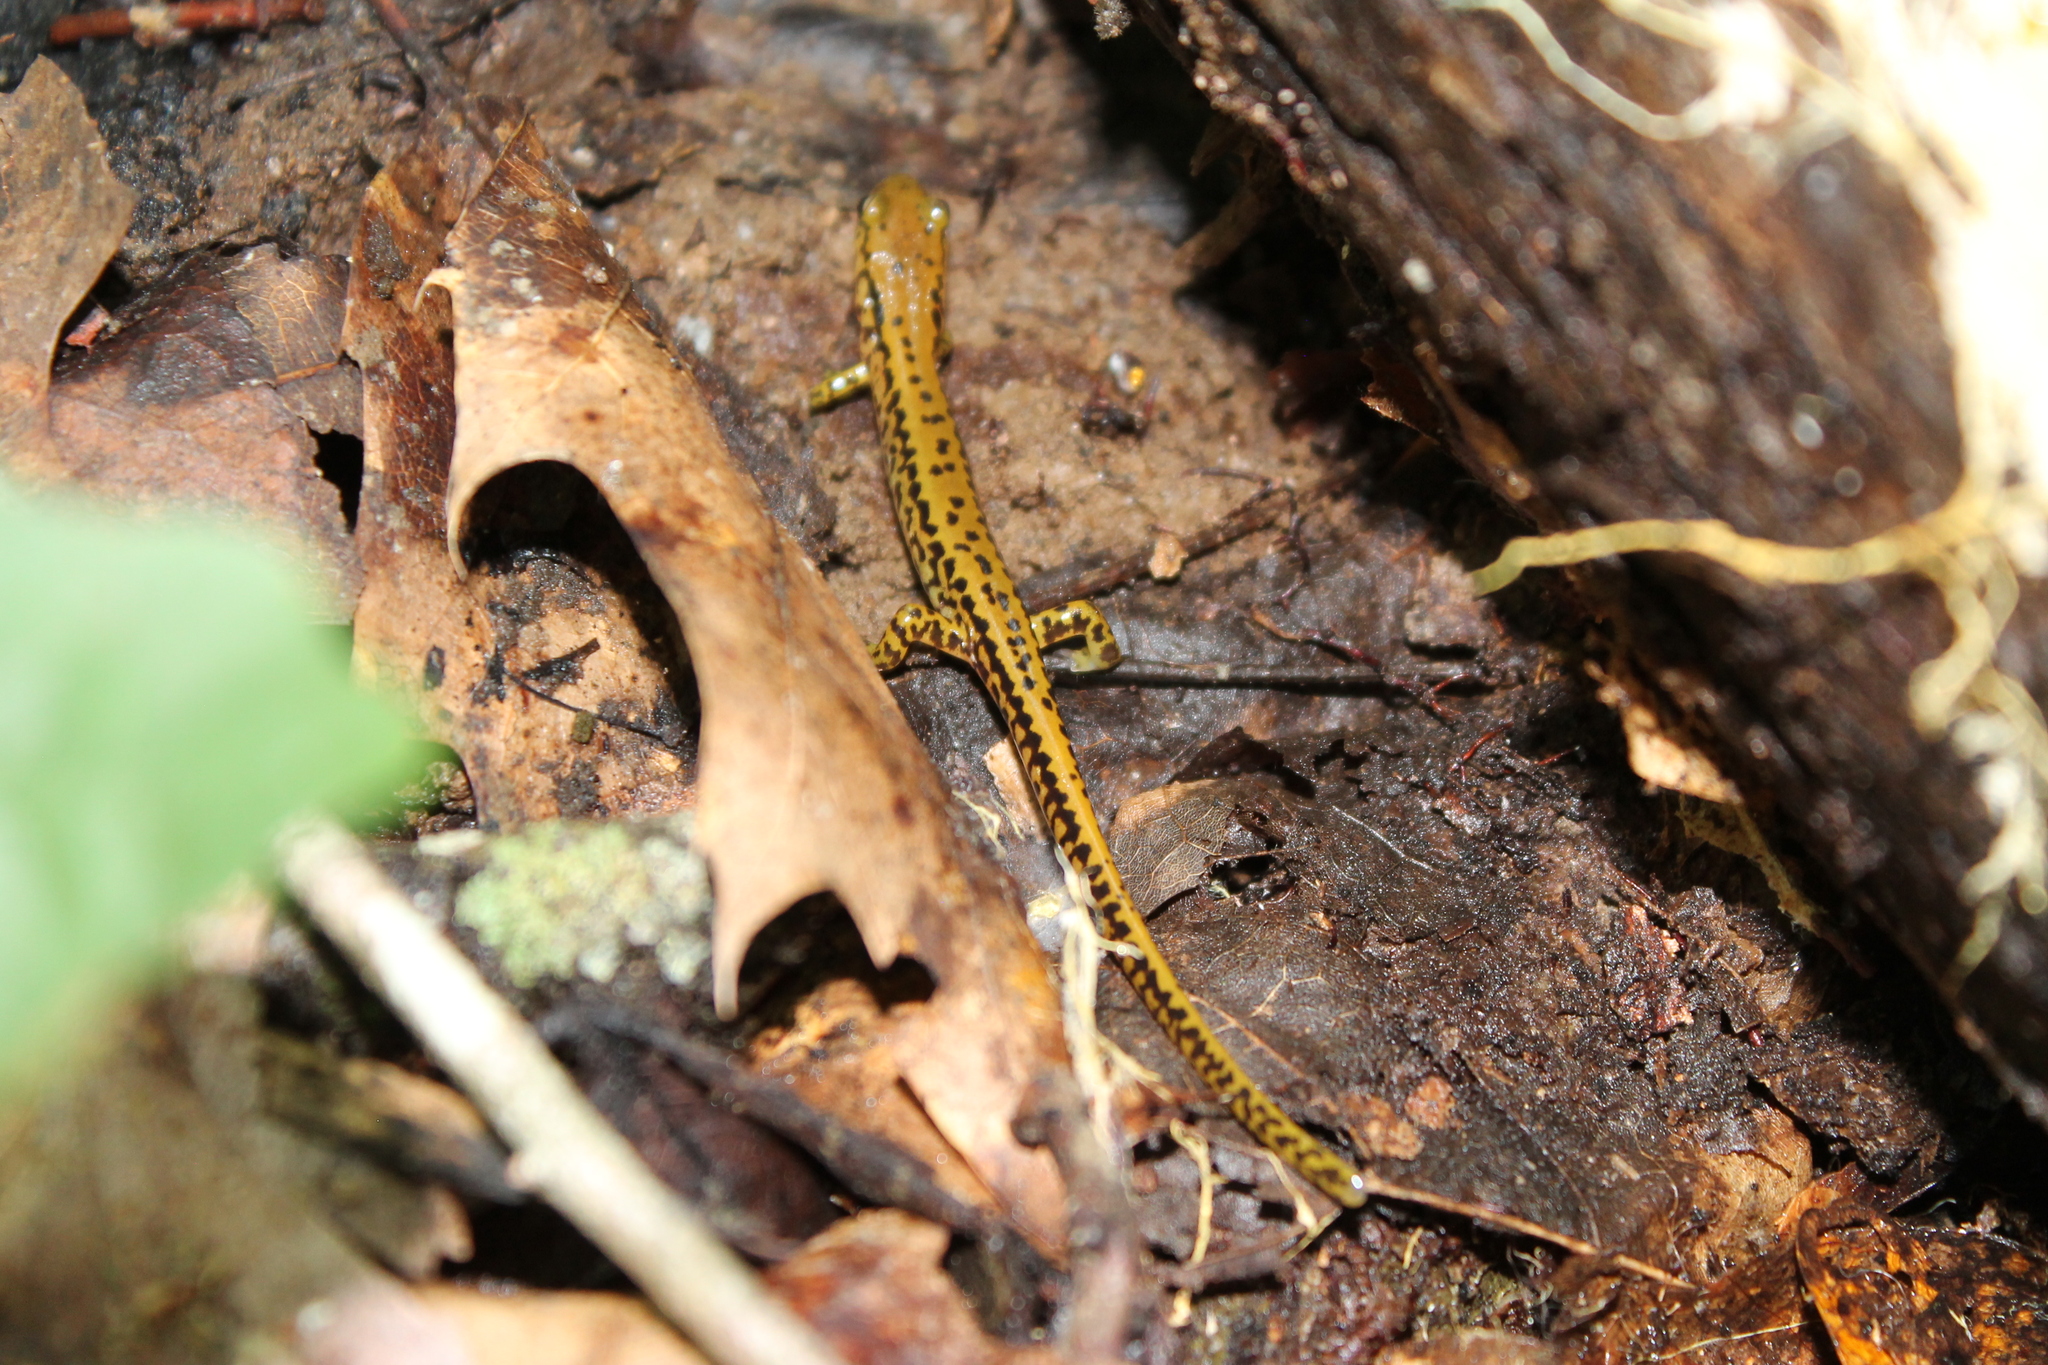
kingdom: Animalia
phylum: Chordata
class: Amphibia
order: Caudata
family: Plethodontidae
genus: Eurycea
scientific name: Eurycea longicauda
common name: Long-tailed salamander
